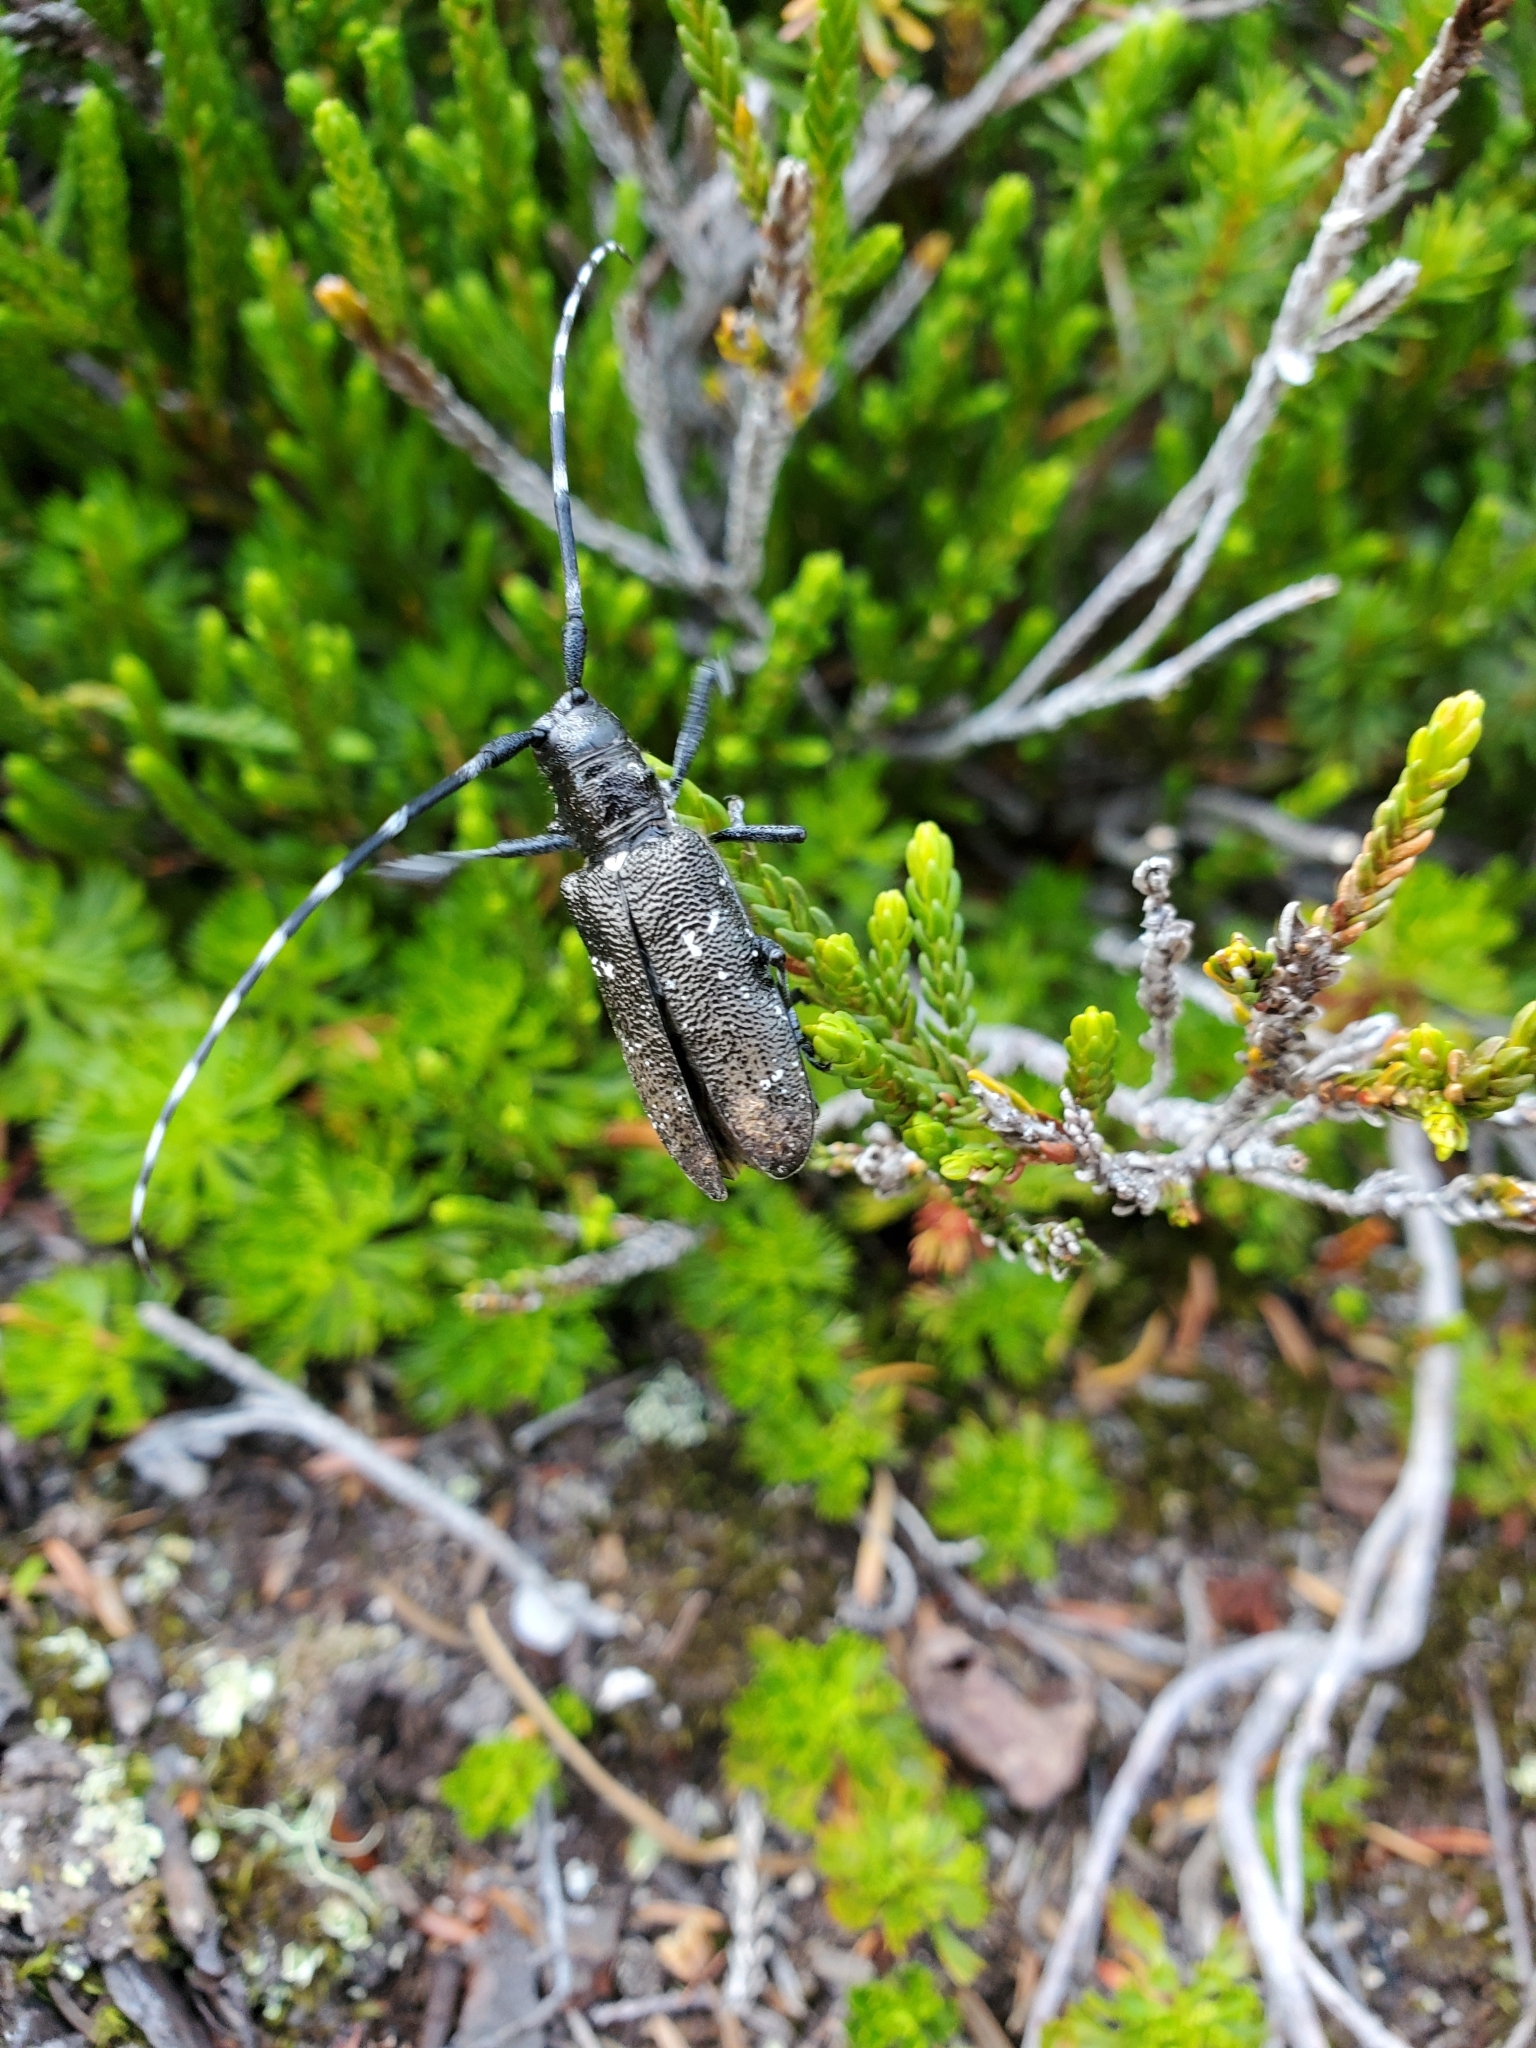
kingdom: Animalia
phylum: Arthropoda
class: Insecta
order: Coleoptera
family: Cerambycidae
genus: Monochamus
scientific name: Monochamus scutellatus
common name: White-spotted sawyer beetle
